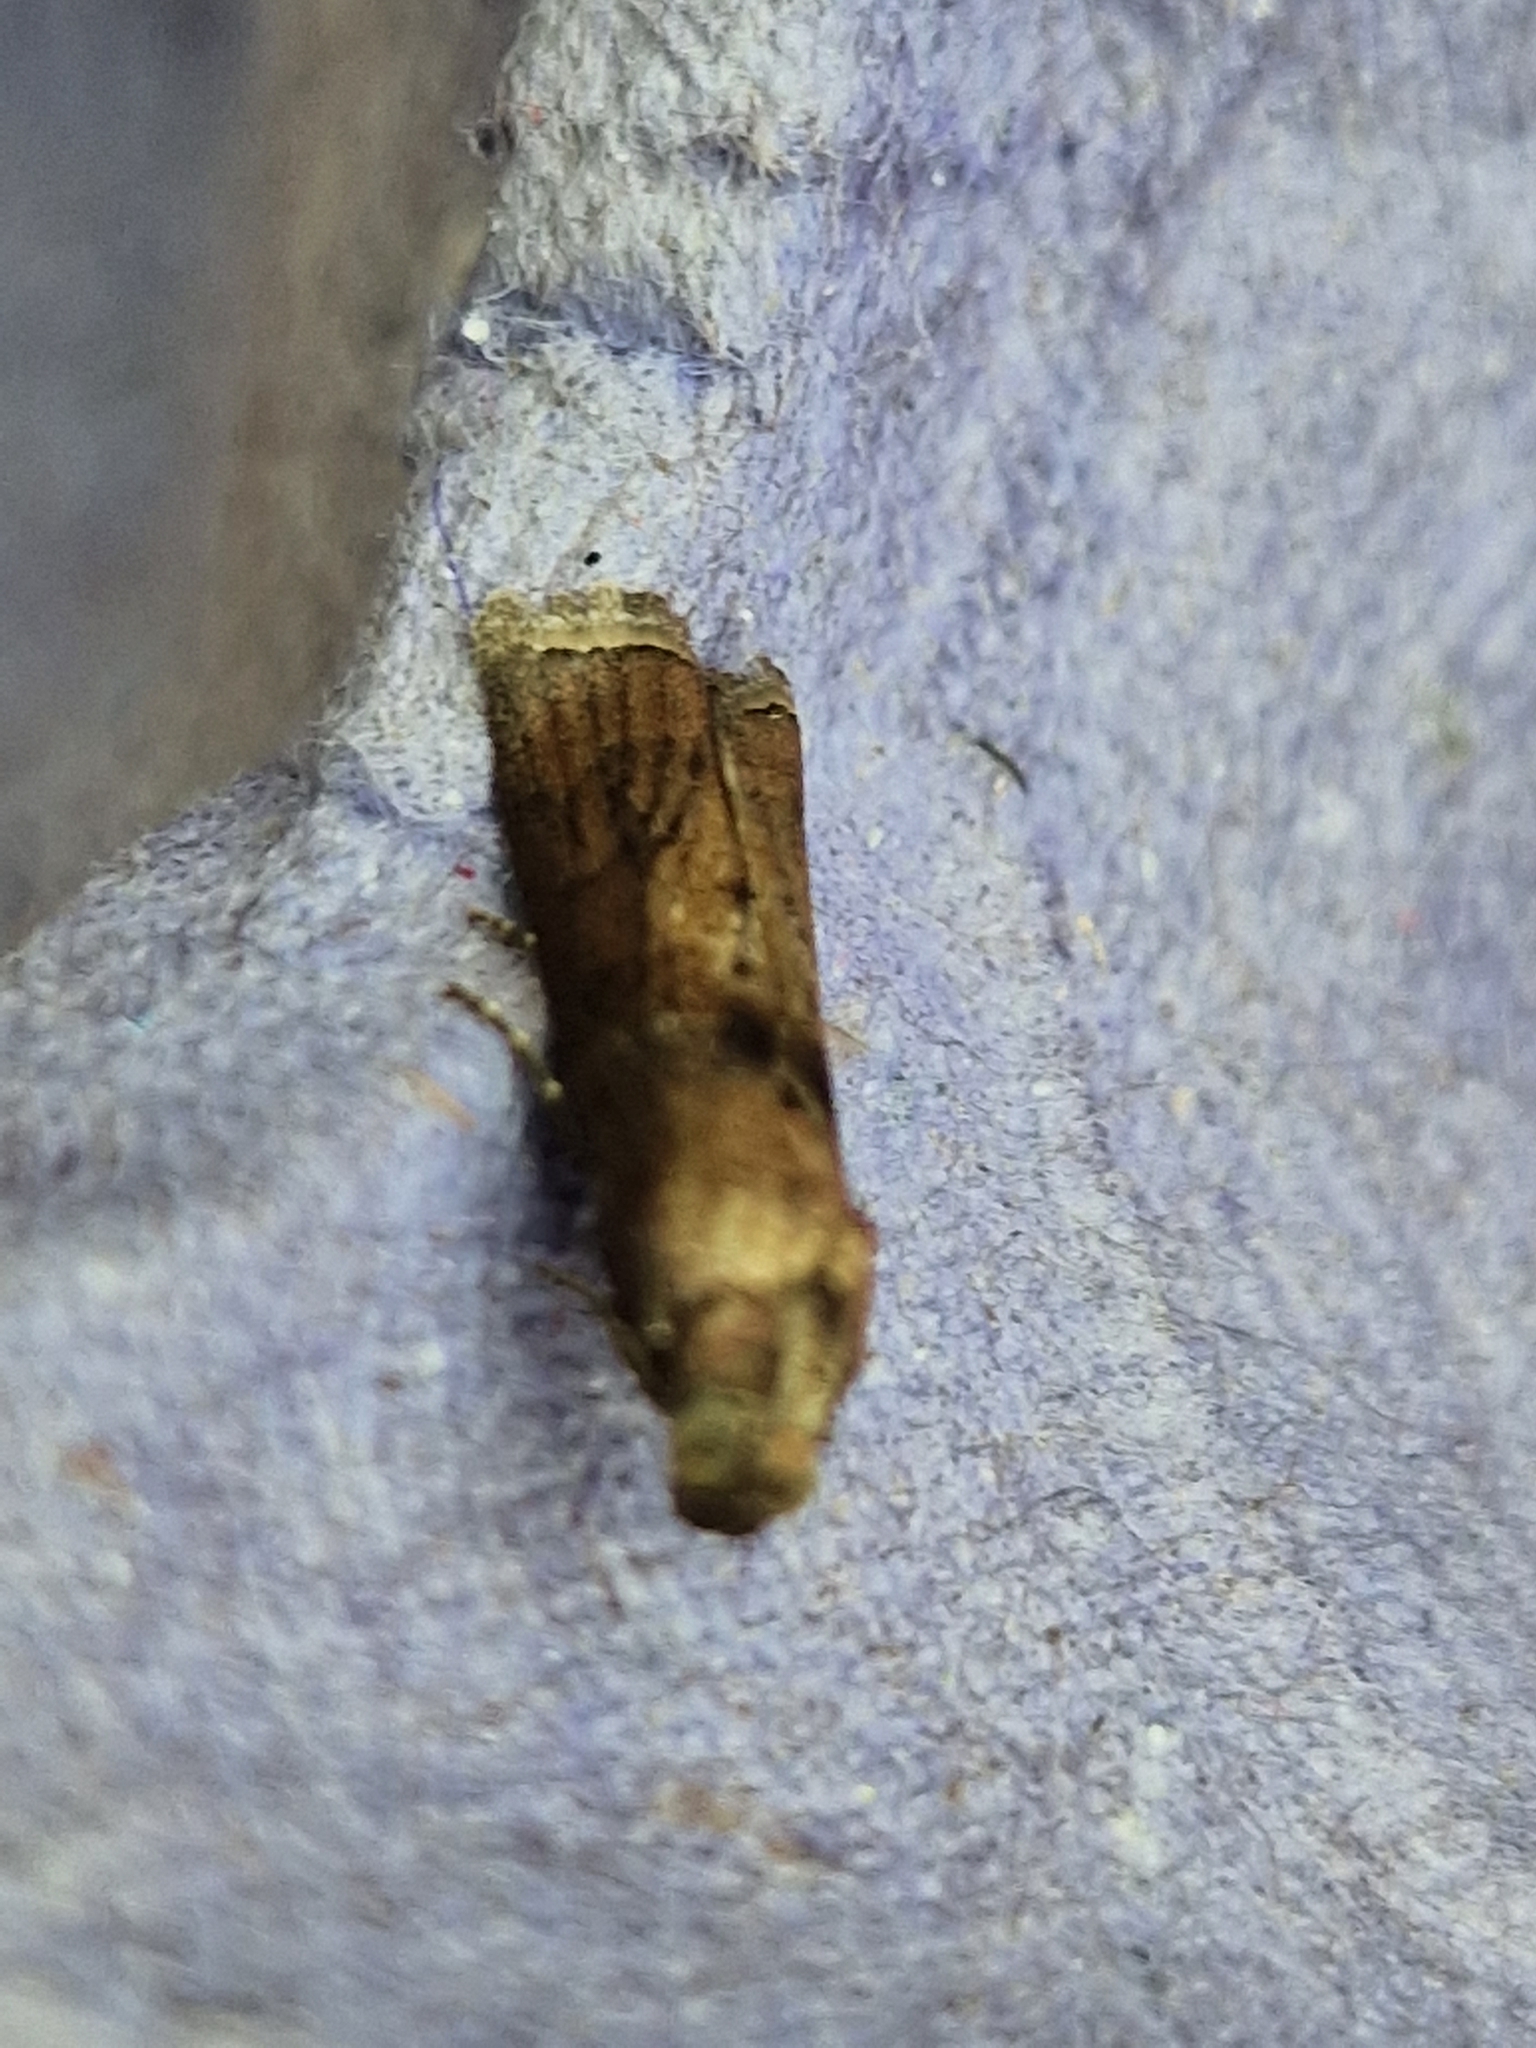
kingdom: Animalia
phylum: Arthropoda
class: Insecta
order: Lepidoptera
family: Pyralidae
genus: Phycita
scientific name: Phycita roborella
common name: Dotted oak knot-horn
